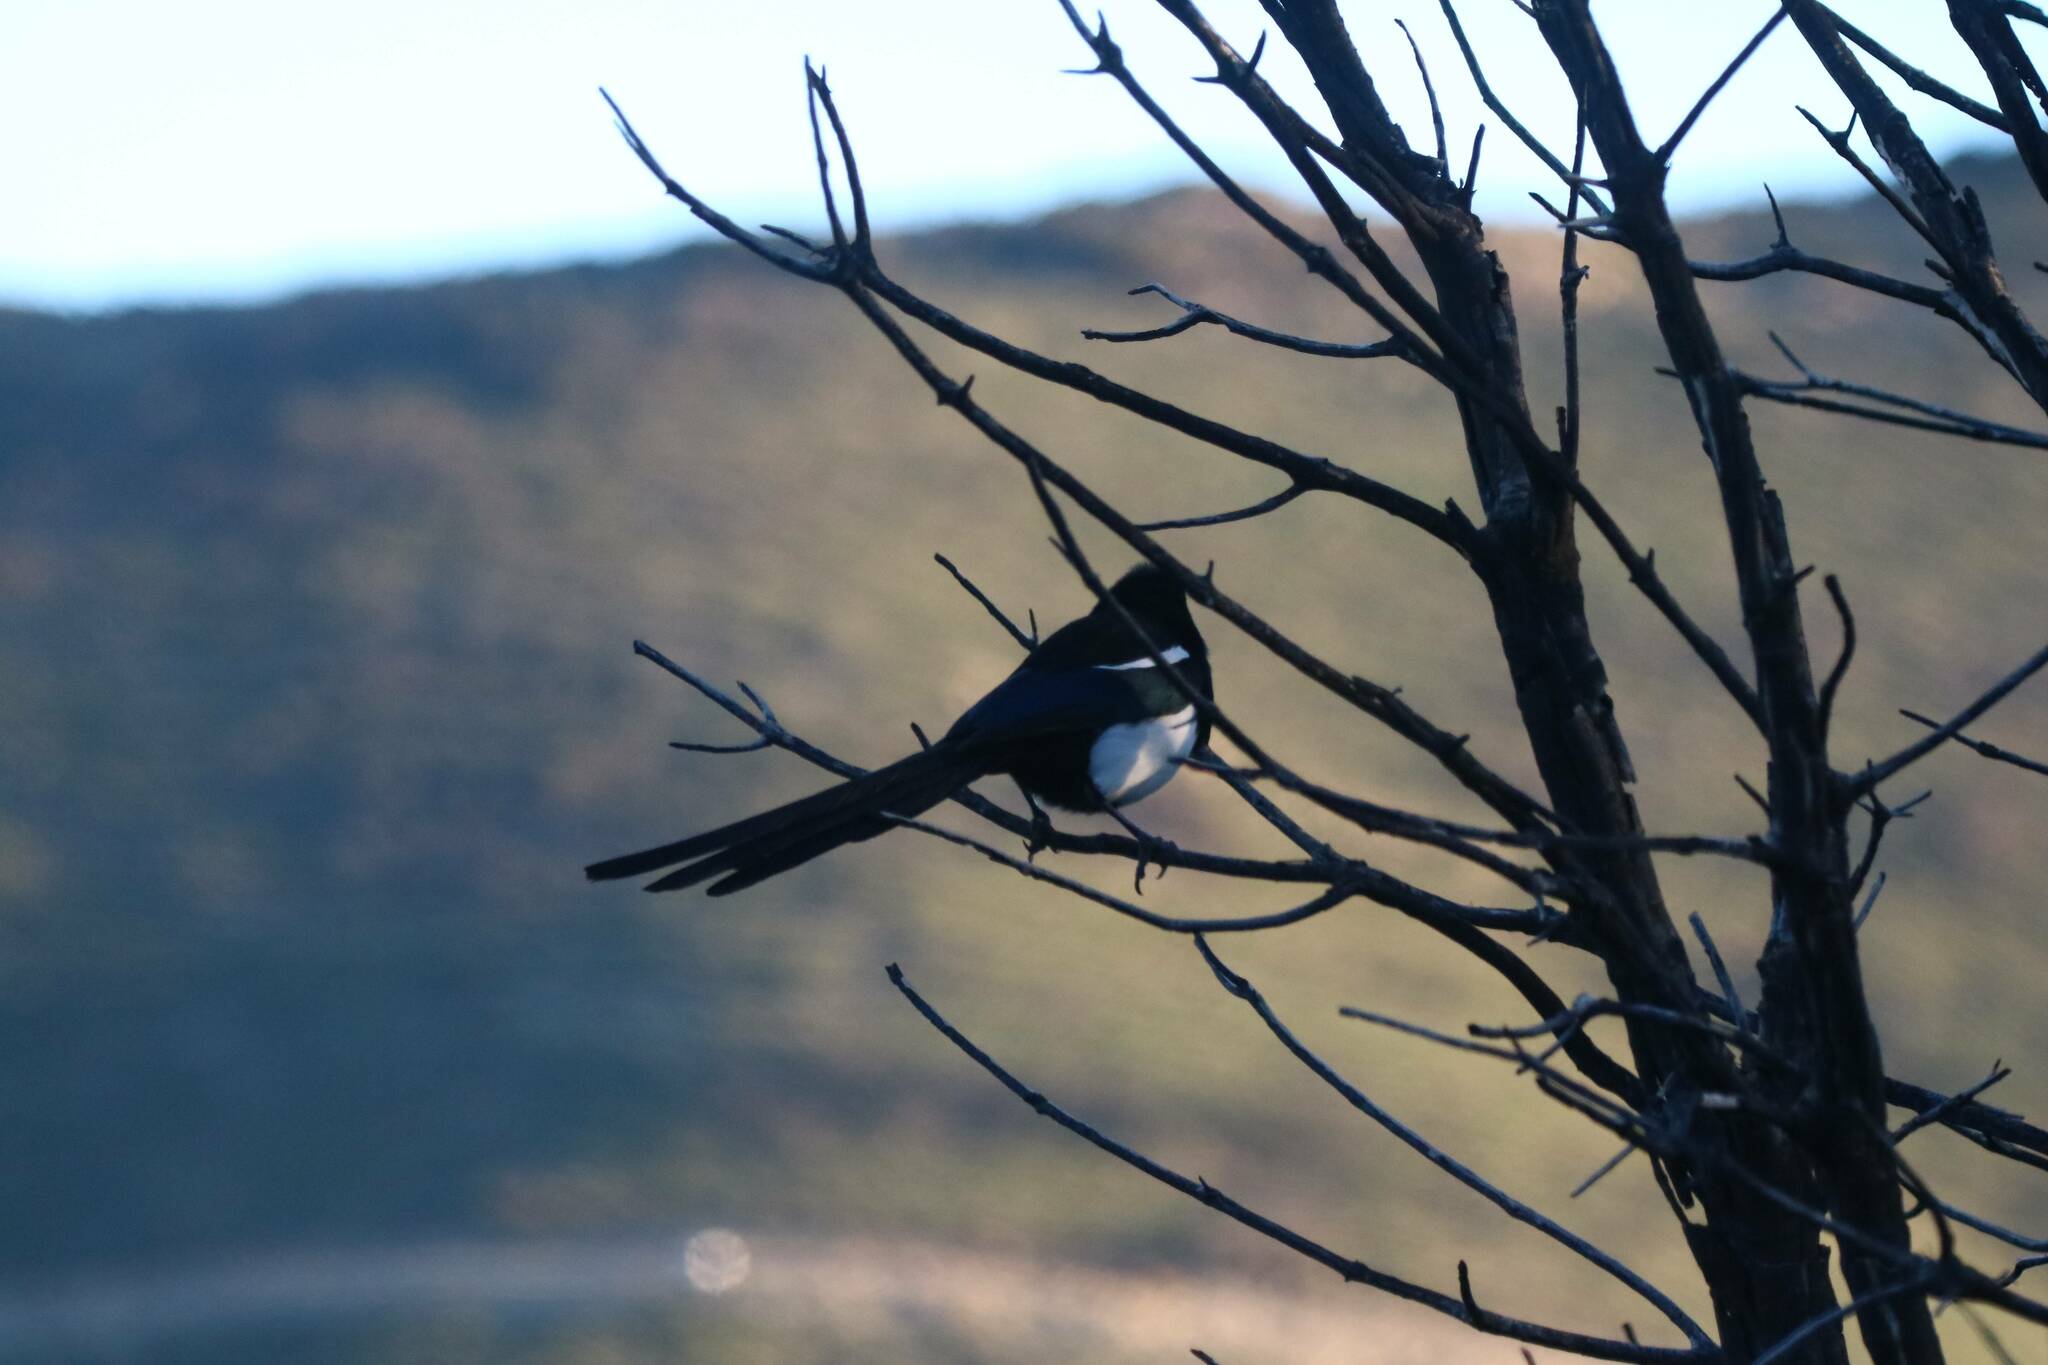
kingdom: Animalia
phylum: Chordata
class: Aves
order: Passeriformes
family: Corvidae
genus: Pica
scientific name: Pica mauritanica
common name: Maghreb magpie
